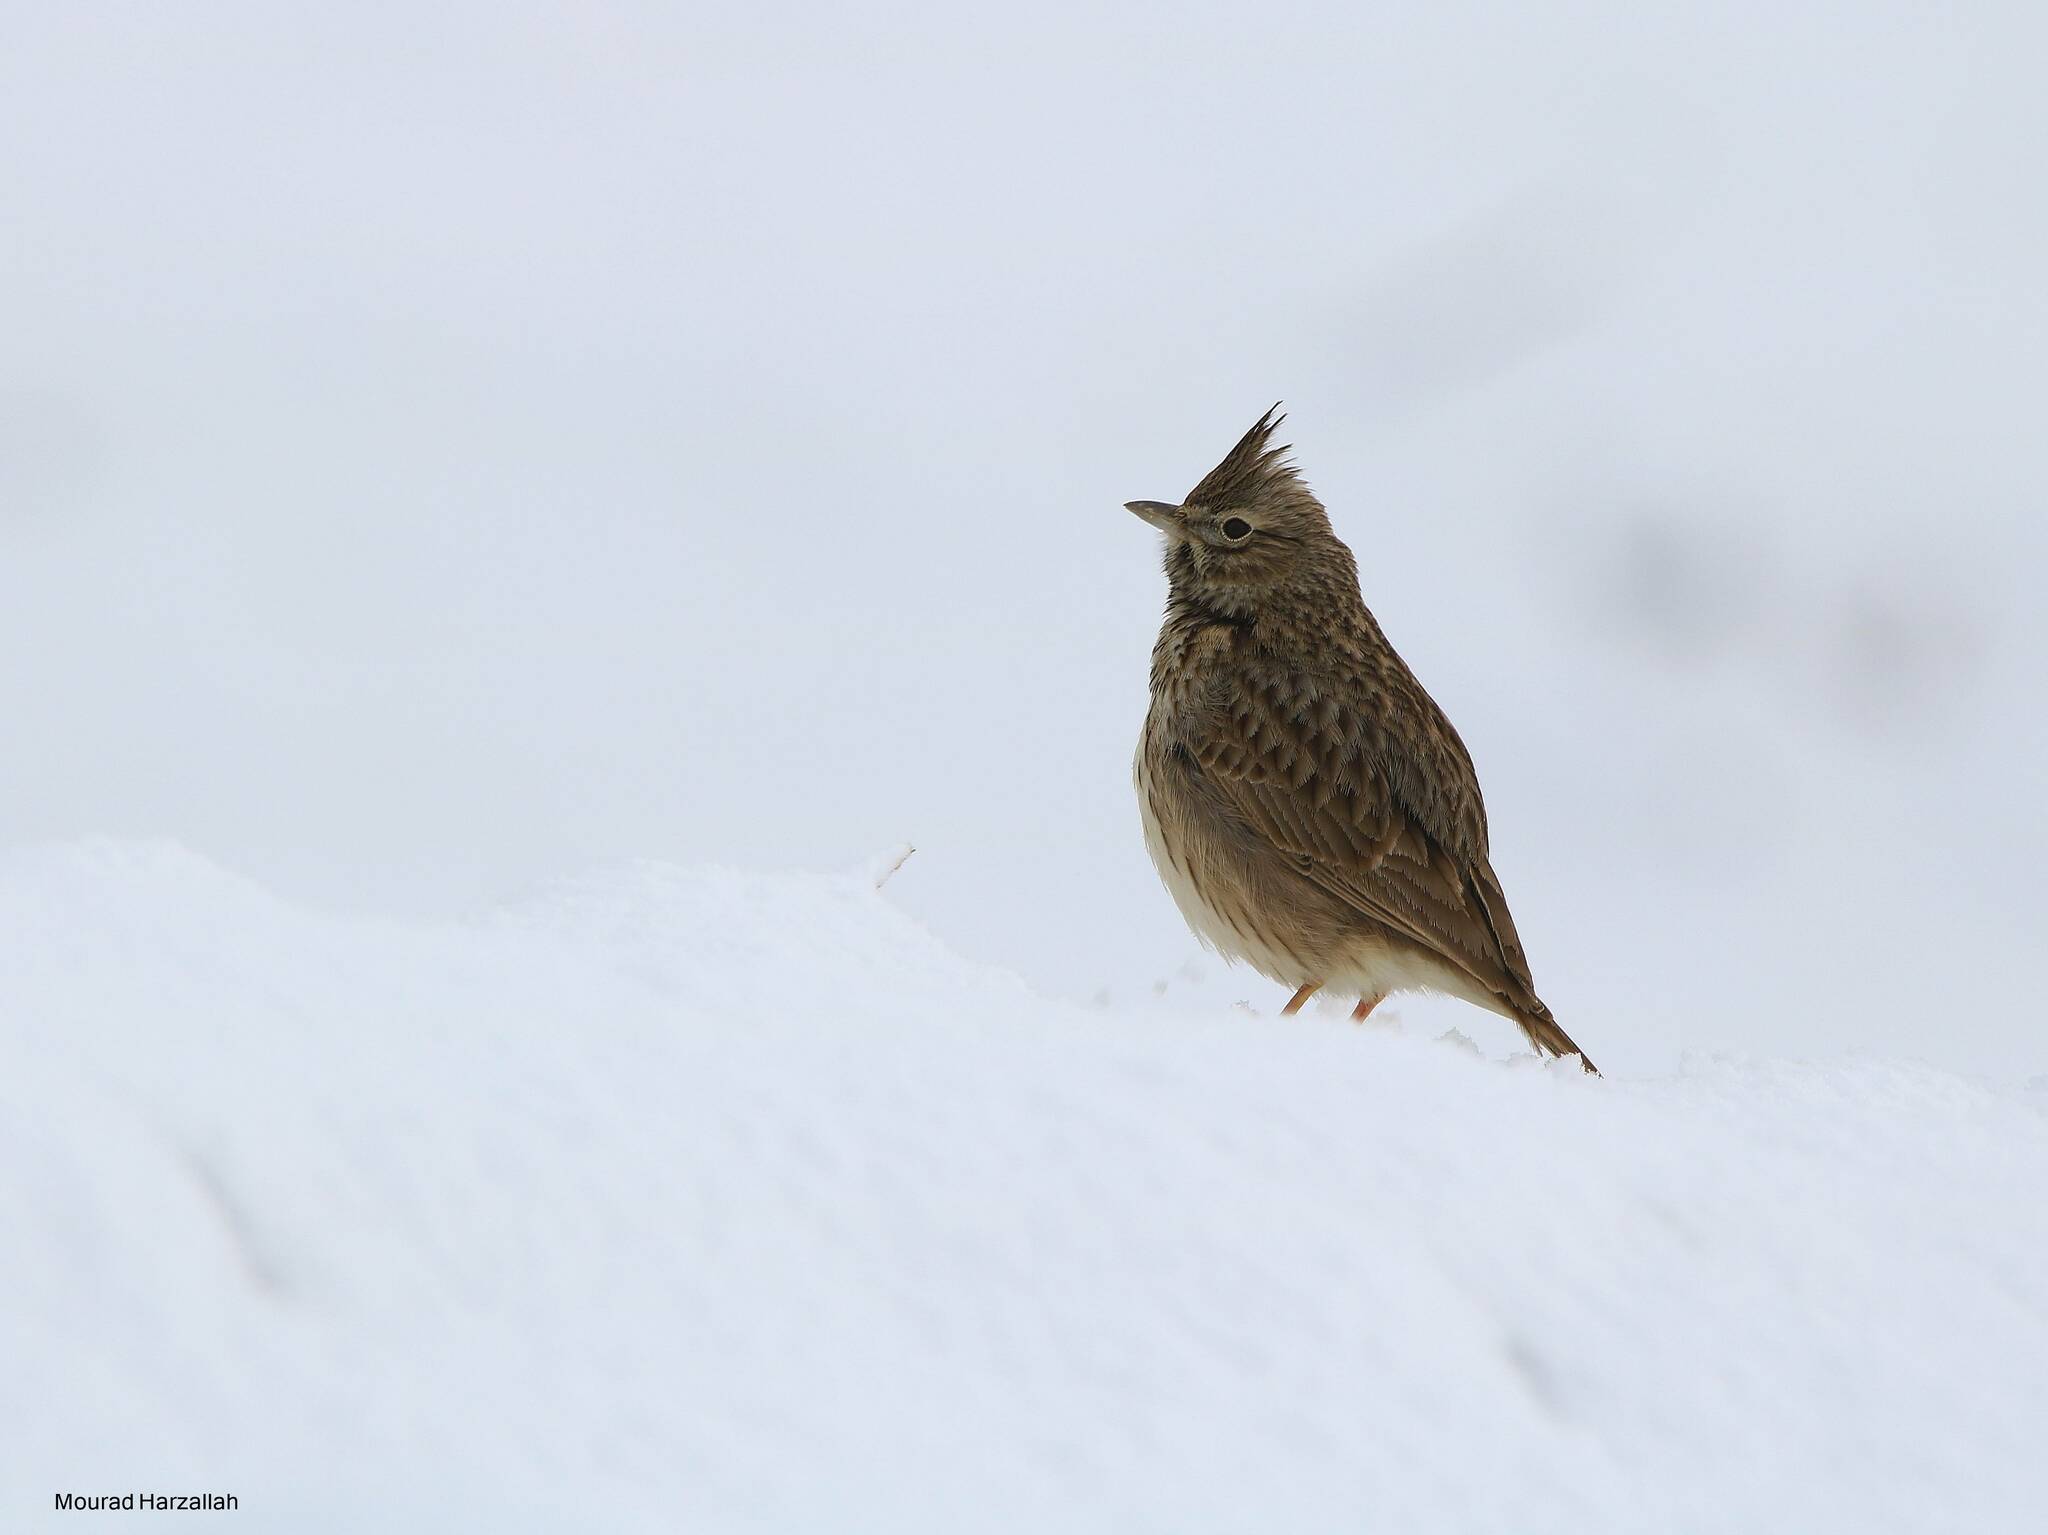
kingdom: Animalia
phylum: Chordata
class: Aves
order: Passeriformes
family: Alaudidae
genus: Galerida
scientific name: Galerida theklae
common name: Thekla lark
